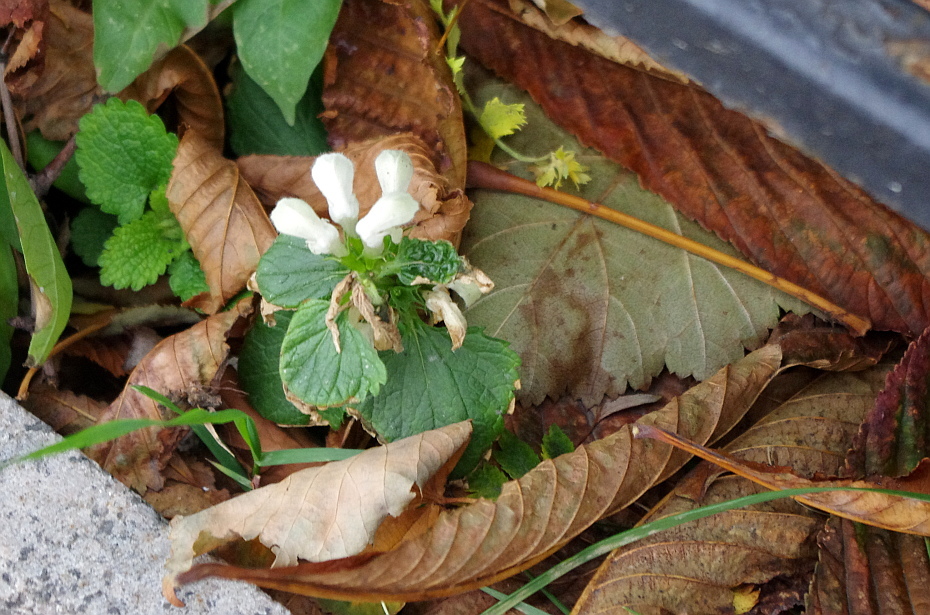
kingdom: Plantae
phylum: Tracheophyta
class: Magnoliopsida
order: Lamiales
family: Lamiaceae
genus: Lamium
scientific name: Lamium album
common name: White dead-nettle
